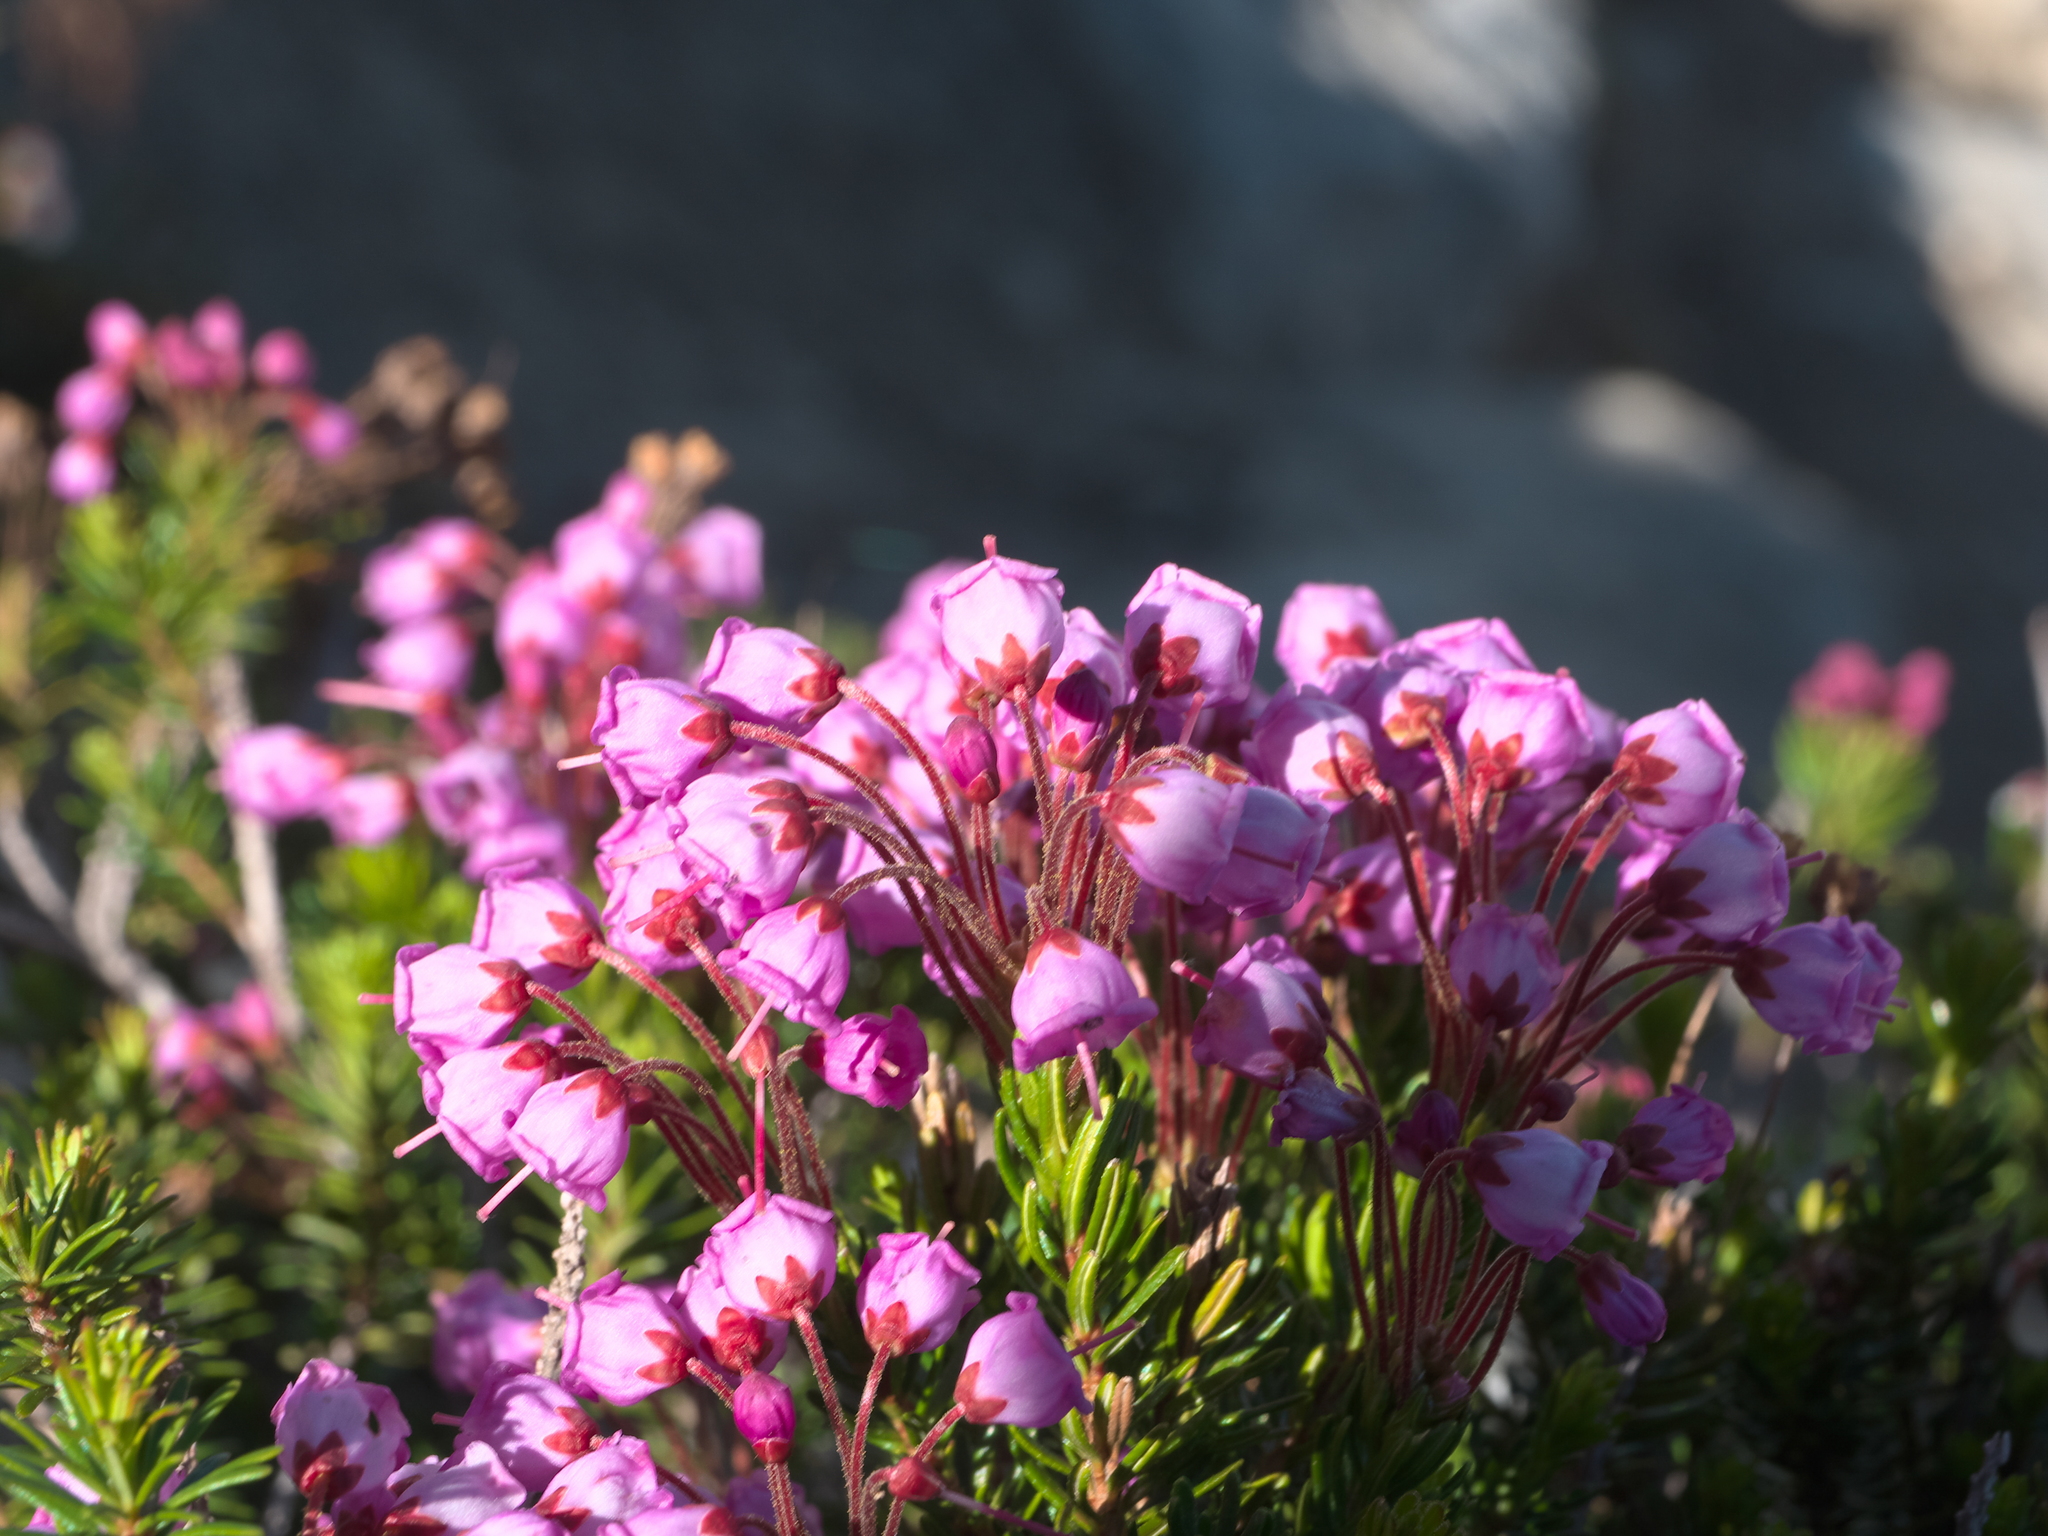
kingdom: Plantae
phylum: Tracheophyta
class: Magnoliopsida
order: Ericales
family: Ericaceae
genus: Phyllodoce
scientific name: Phyllodoce empetriformis
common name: Pink mountain heather
